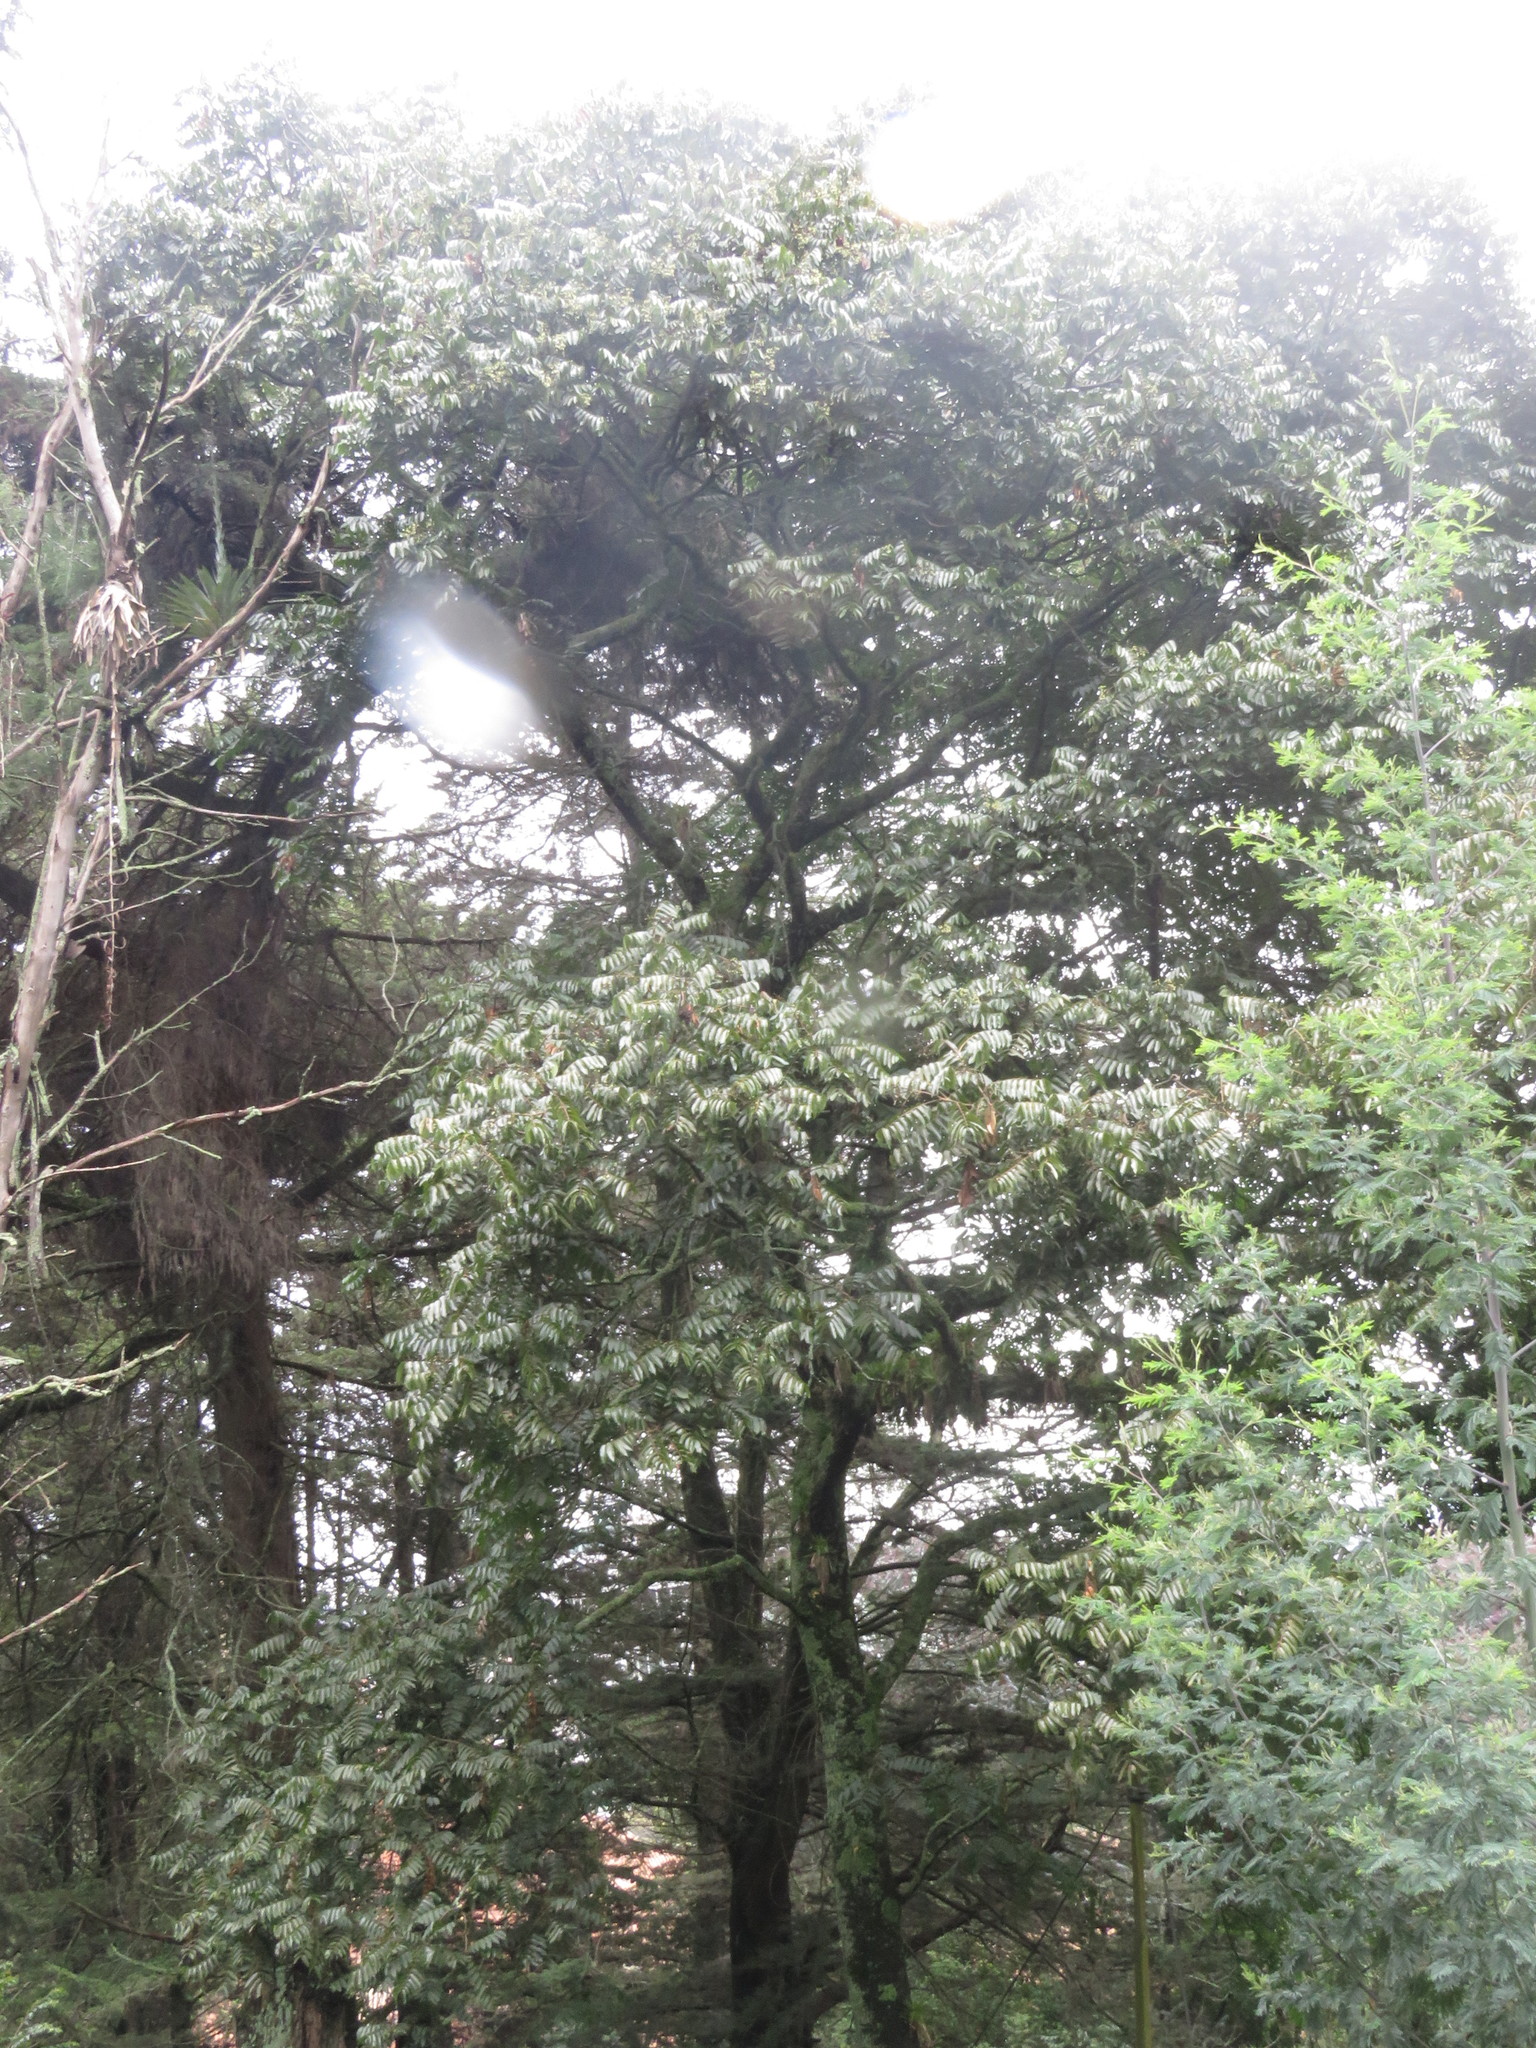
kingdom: Plantae
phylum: Tracheophyta
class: Magnoliopsida
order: Sapindales
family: Meliaceae
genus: Cedrela
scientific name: Cedrela montana
